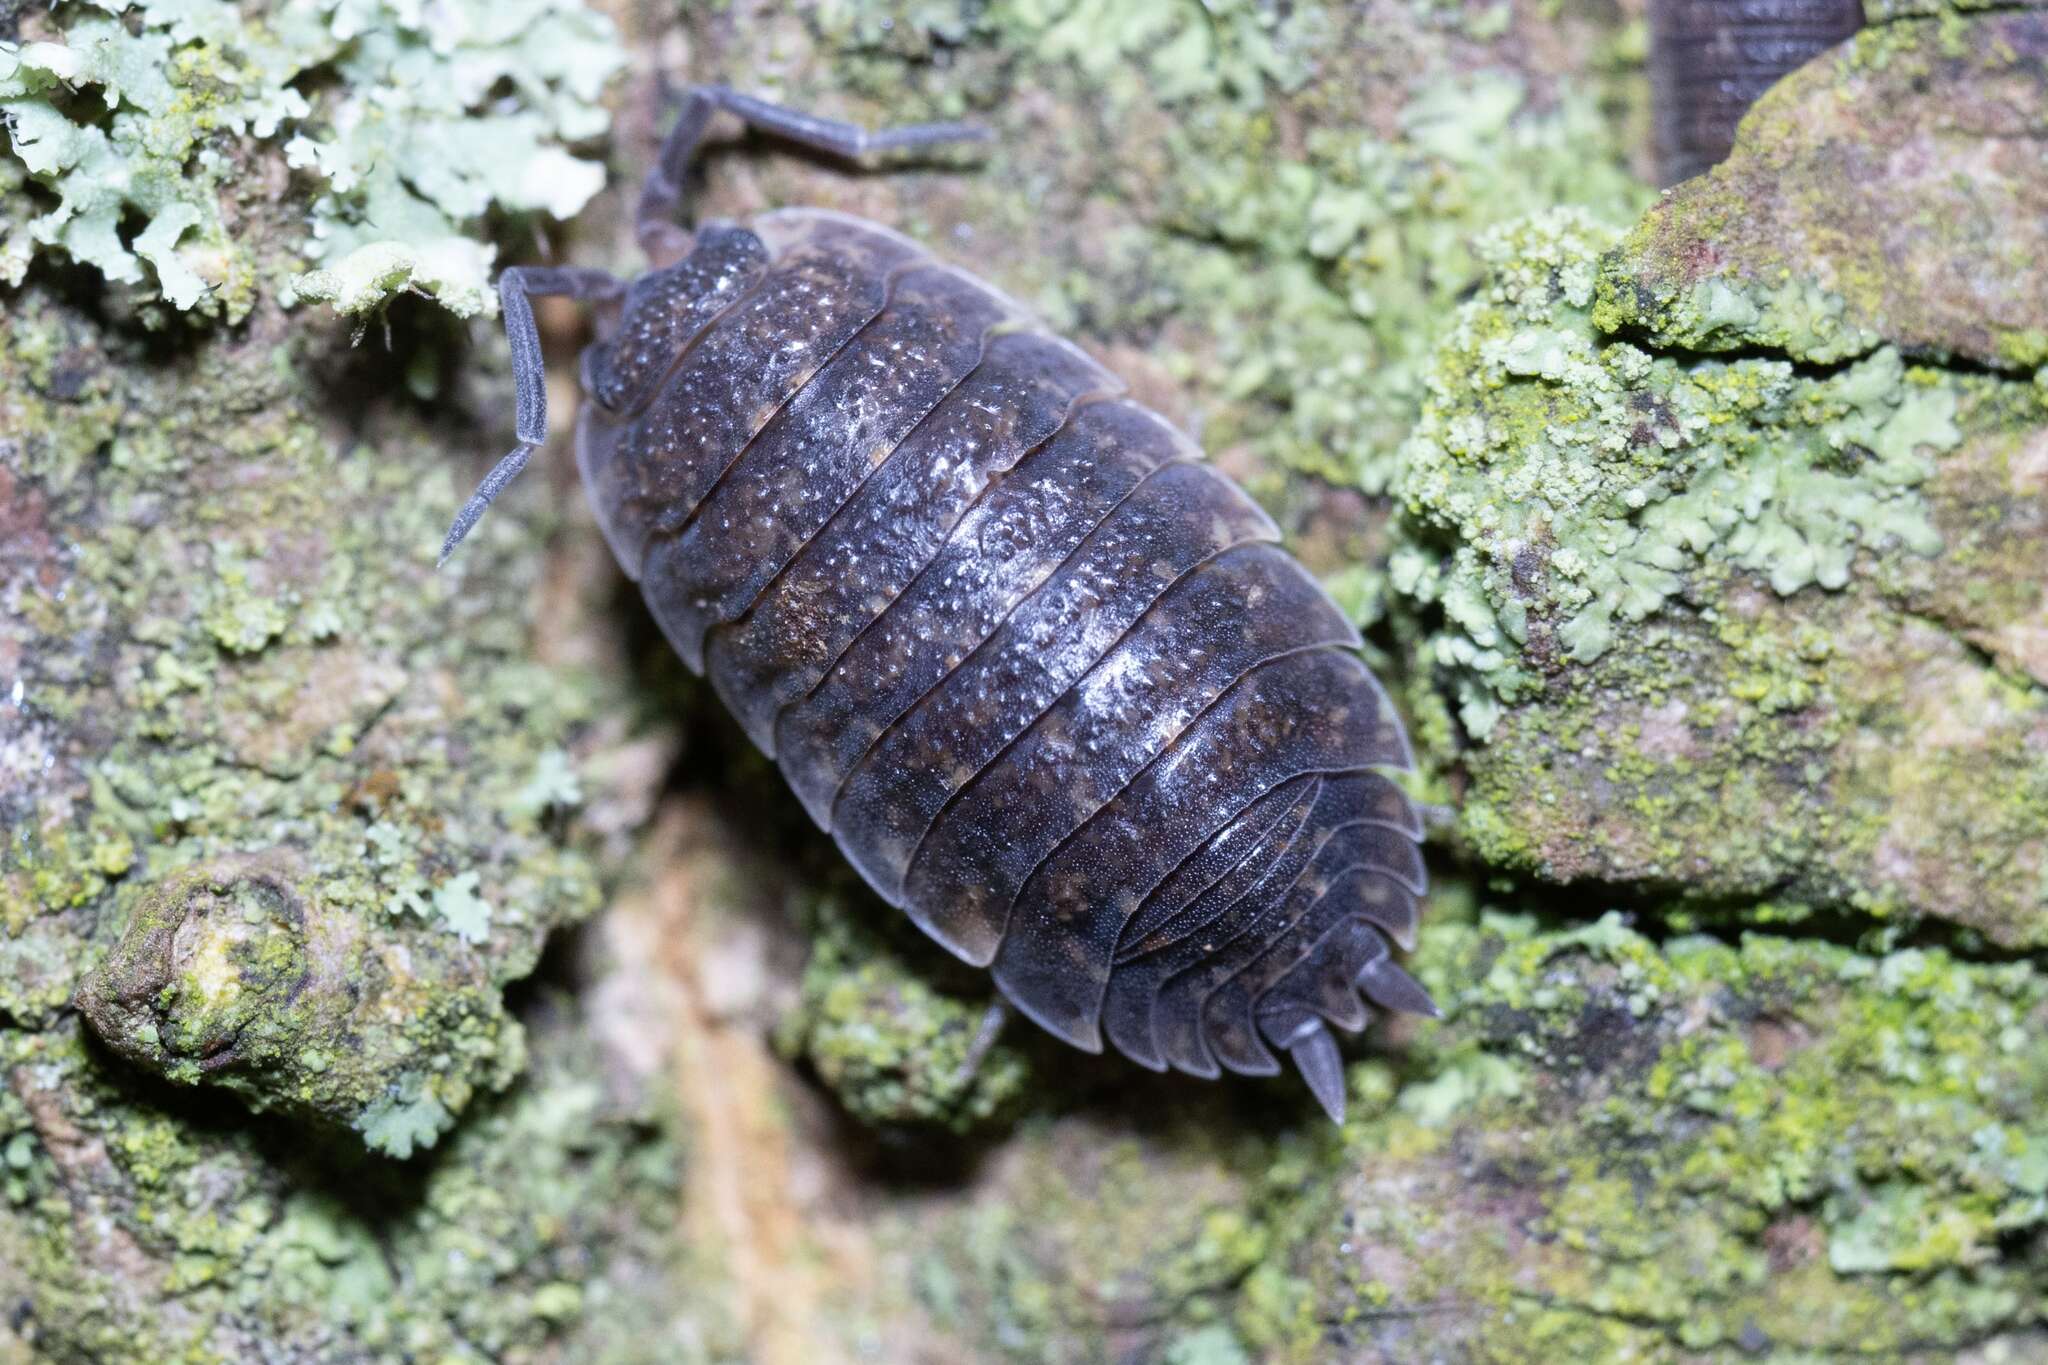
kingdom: Animalia
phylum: Arthropoda
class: Malacostraca
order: Isopoda
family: Porcellionidae
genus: Porcellio
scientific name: Porcellio scaber
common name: Common rough woodlouse
